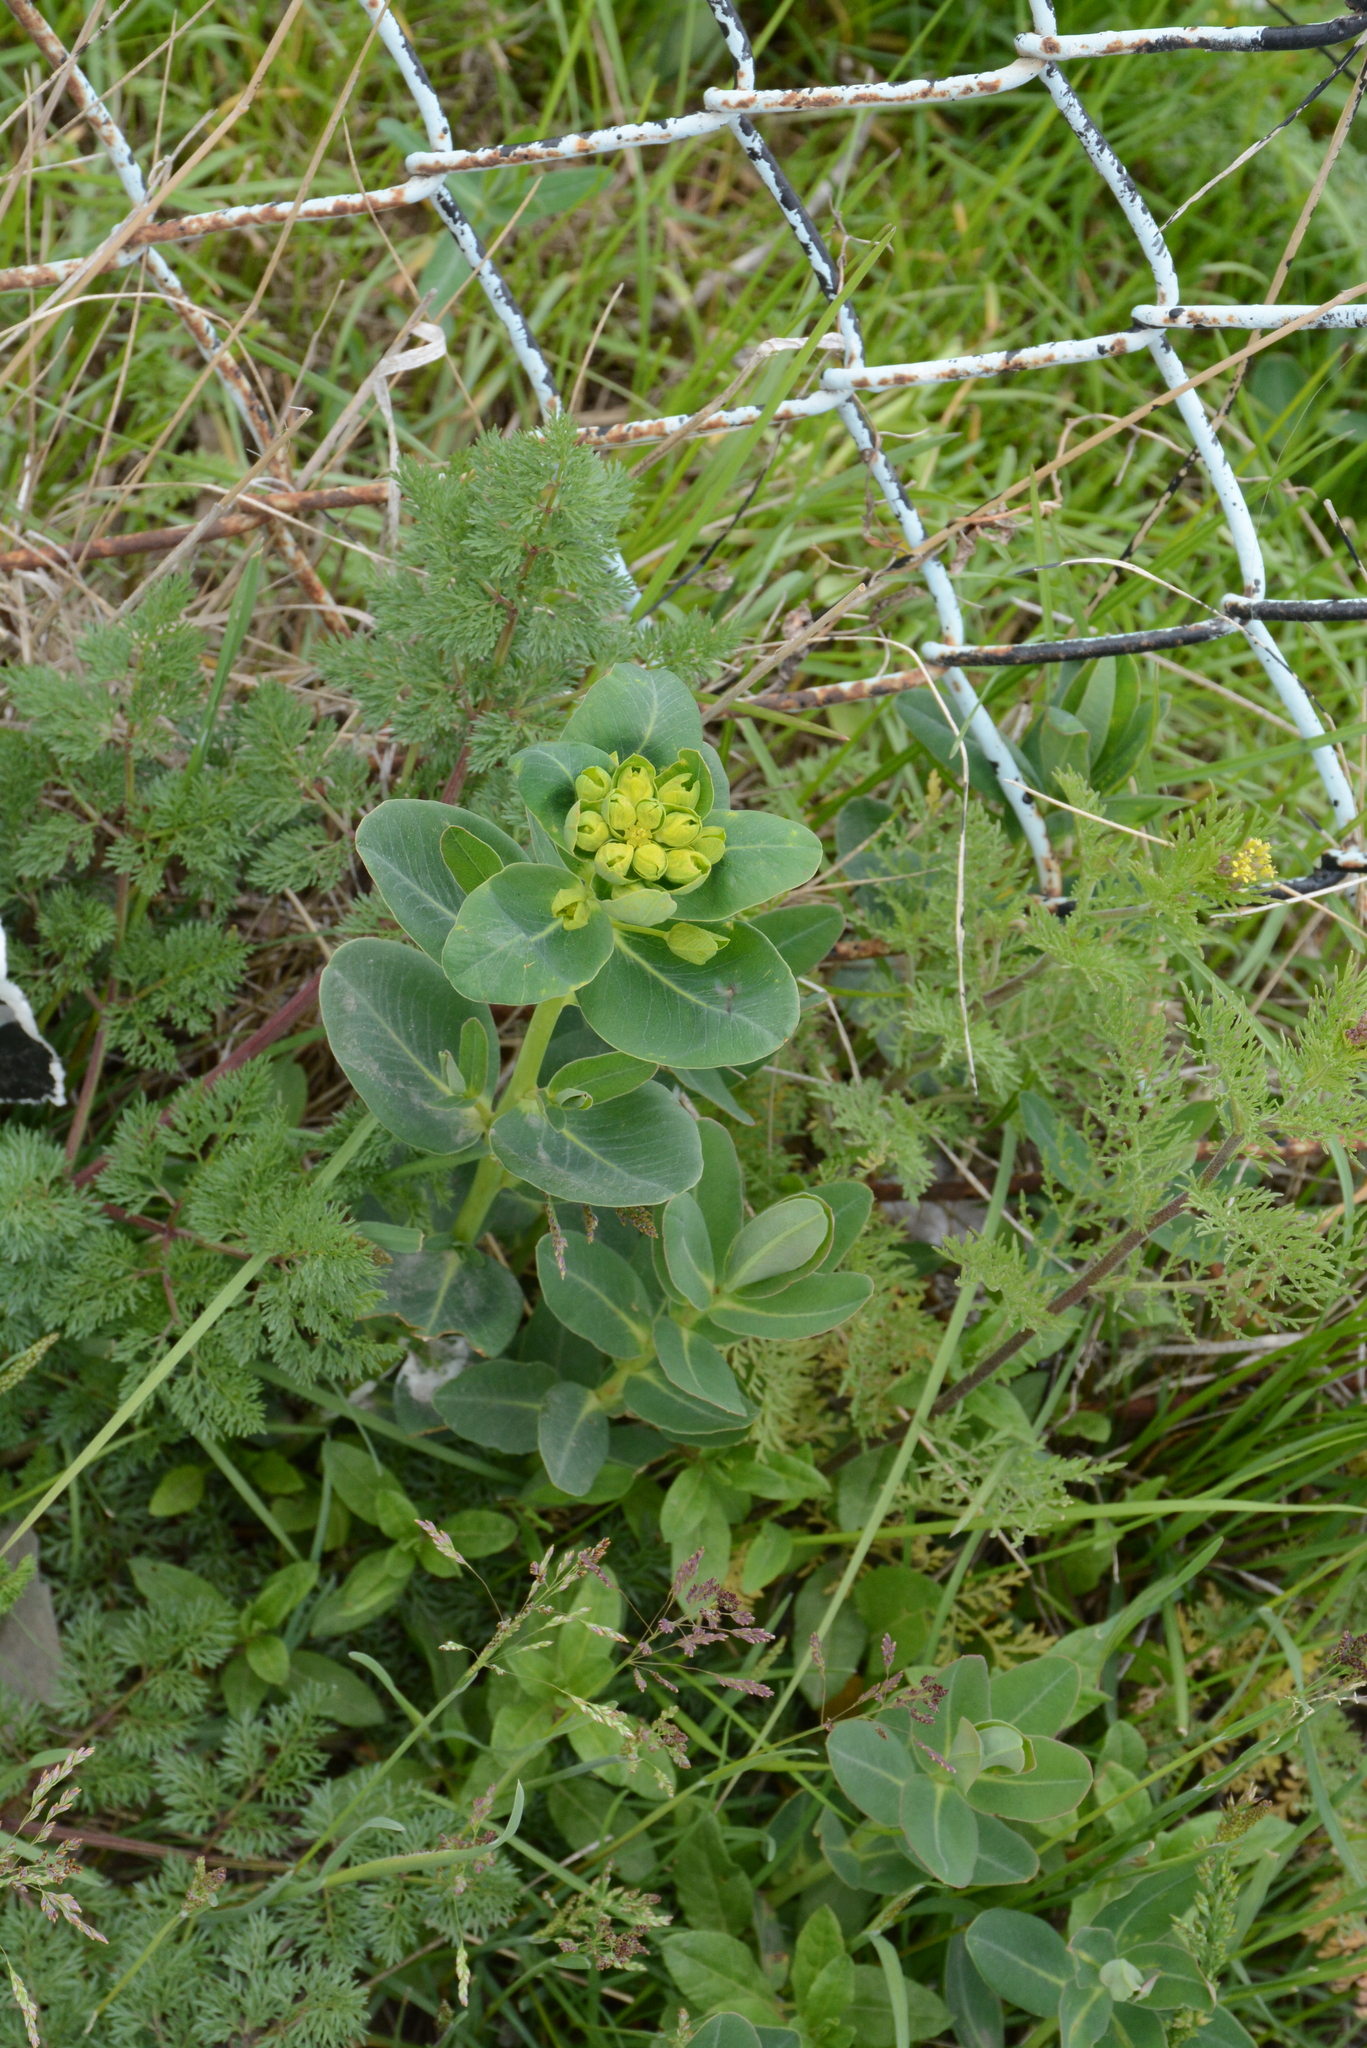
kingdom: Plantae
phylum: Tracheophyta
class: Magnoliopsida
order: Malpighiales
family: Euphorbiaceae
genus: Euphorbia
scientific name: Euphorbia iberica
